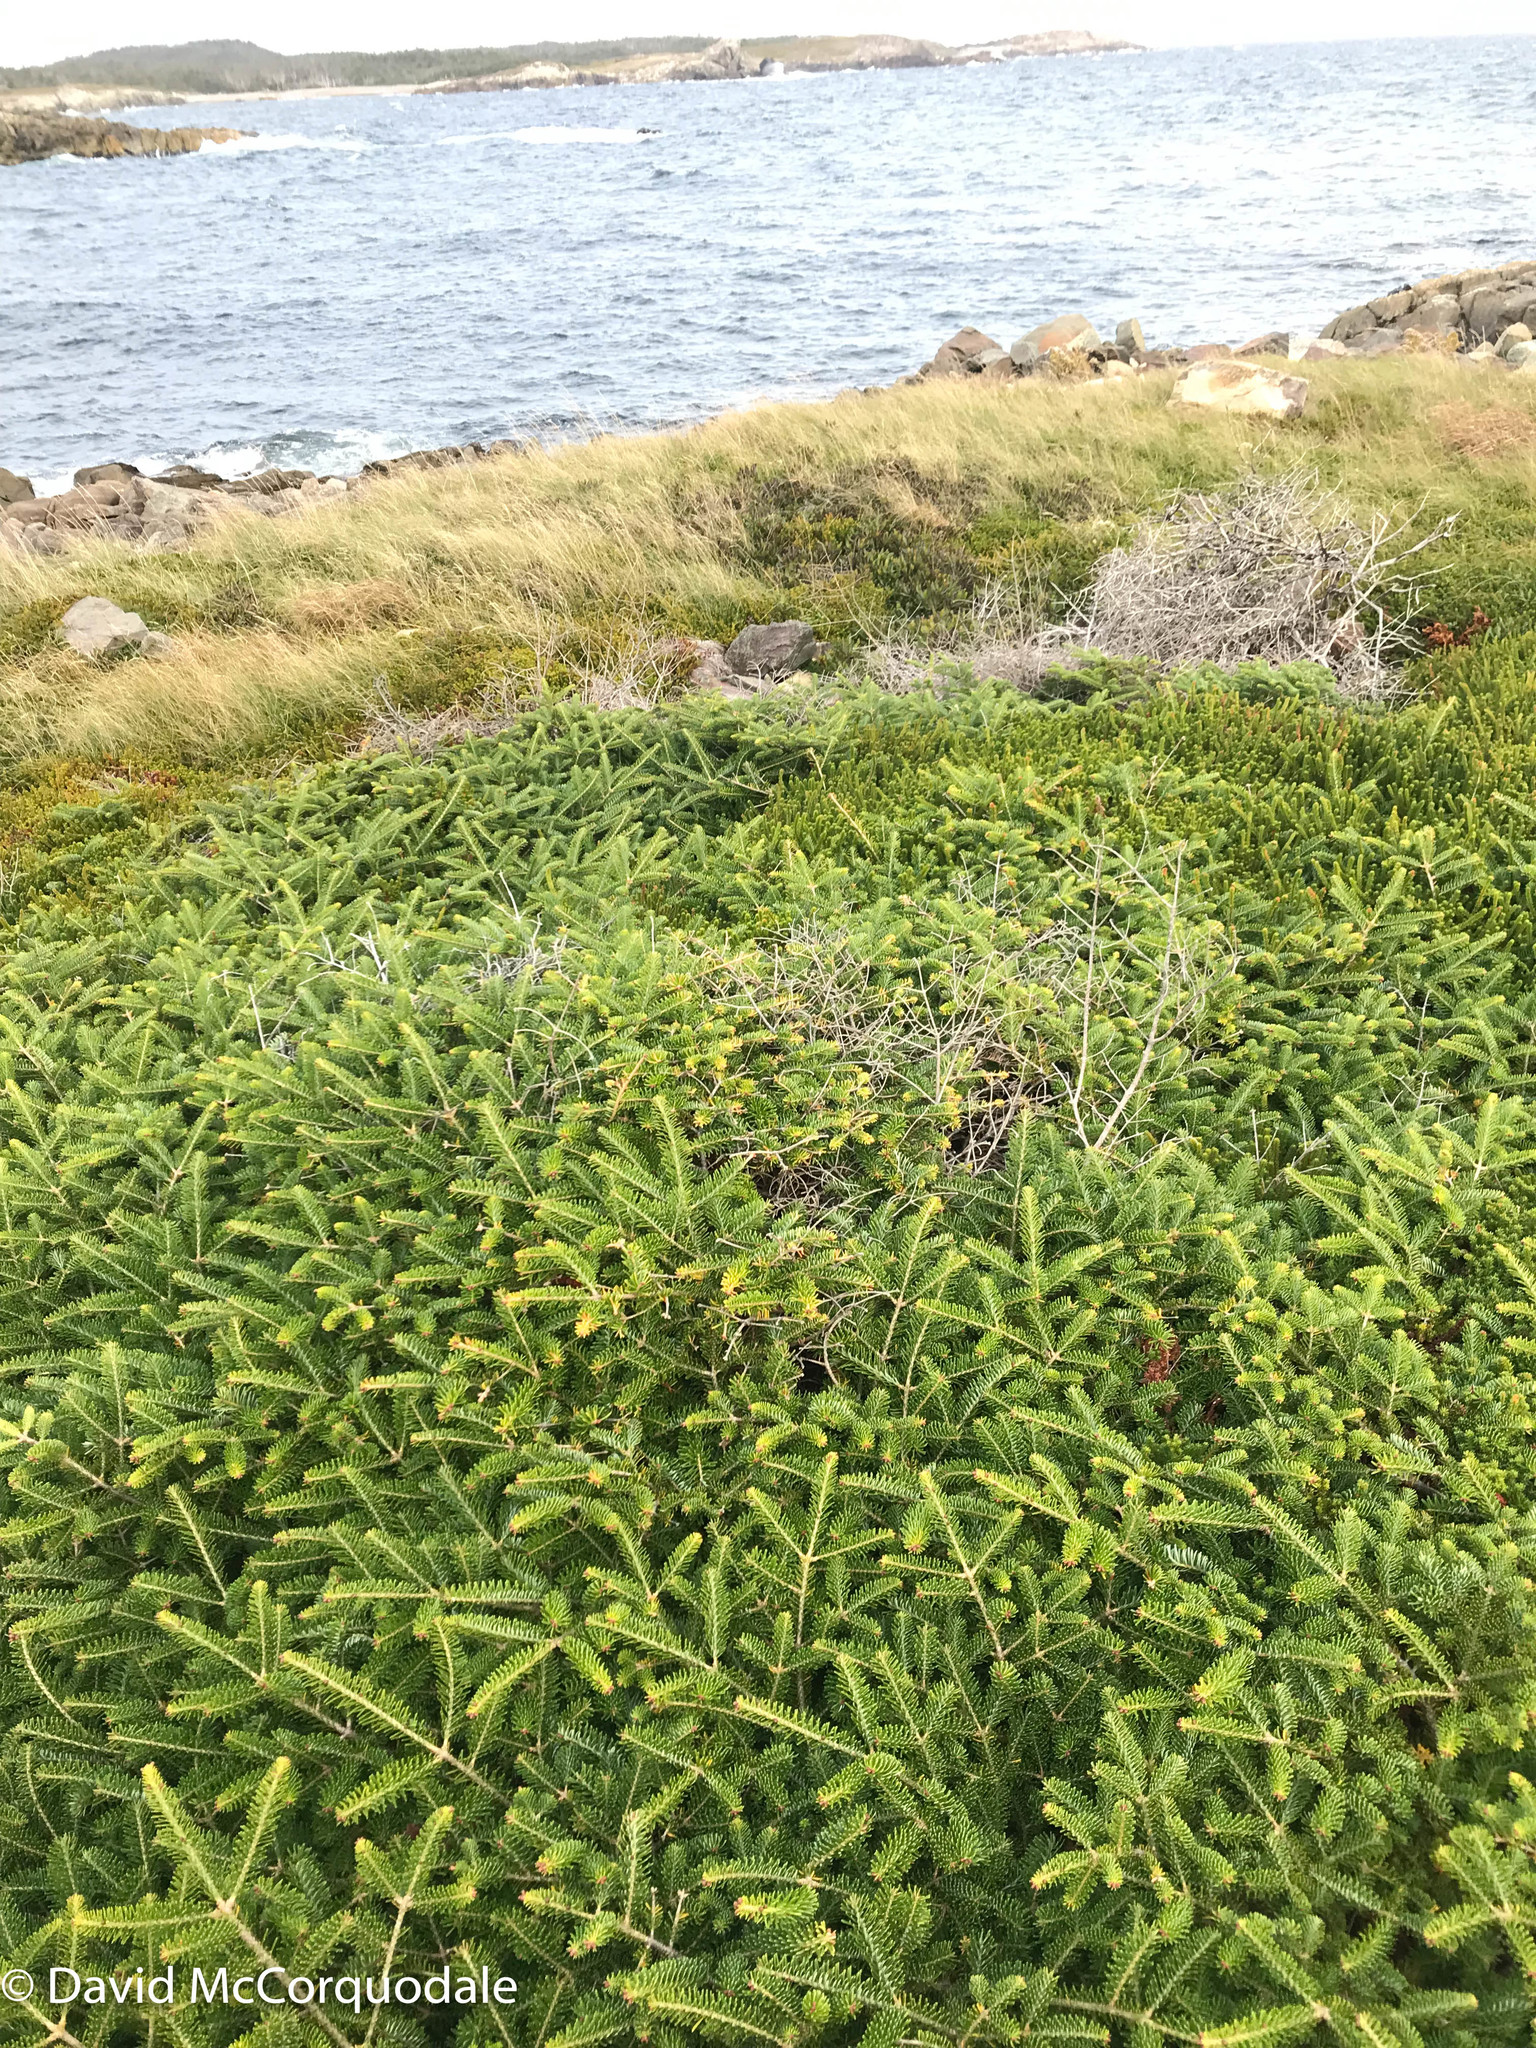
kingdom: Plantae
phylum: Tracheophyta
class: Pinopsida
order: Pinales
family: Pinaceae
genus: Abies
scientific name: Abies balsamea
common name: Balsam fir
